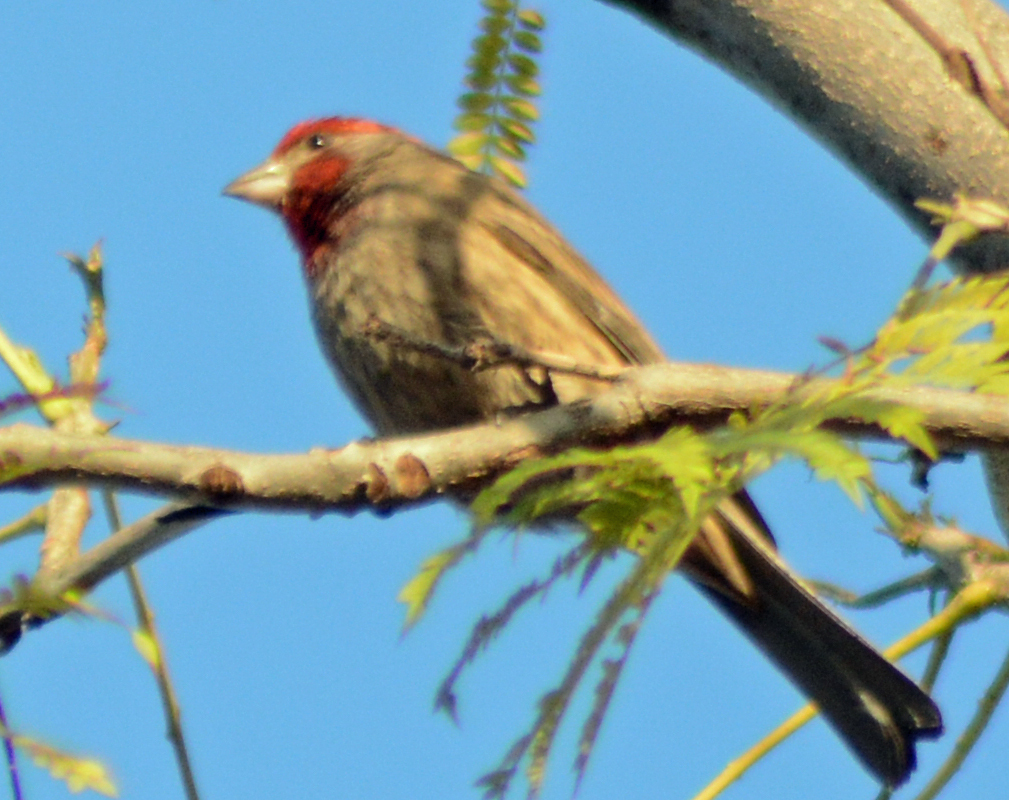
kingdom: Animalia
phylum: Chordata
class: Aves
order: Passeriformes
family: Fringillidae
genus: Haemorhous
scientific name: Haemorhous mexicanus
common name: House finch
